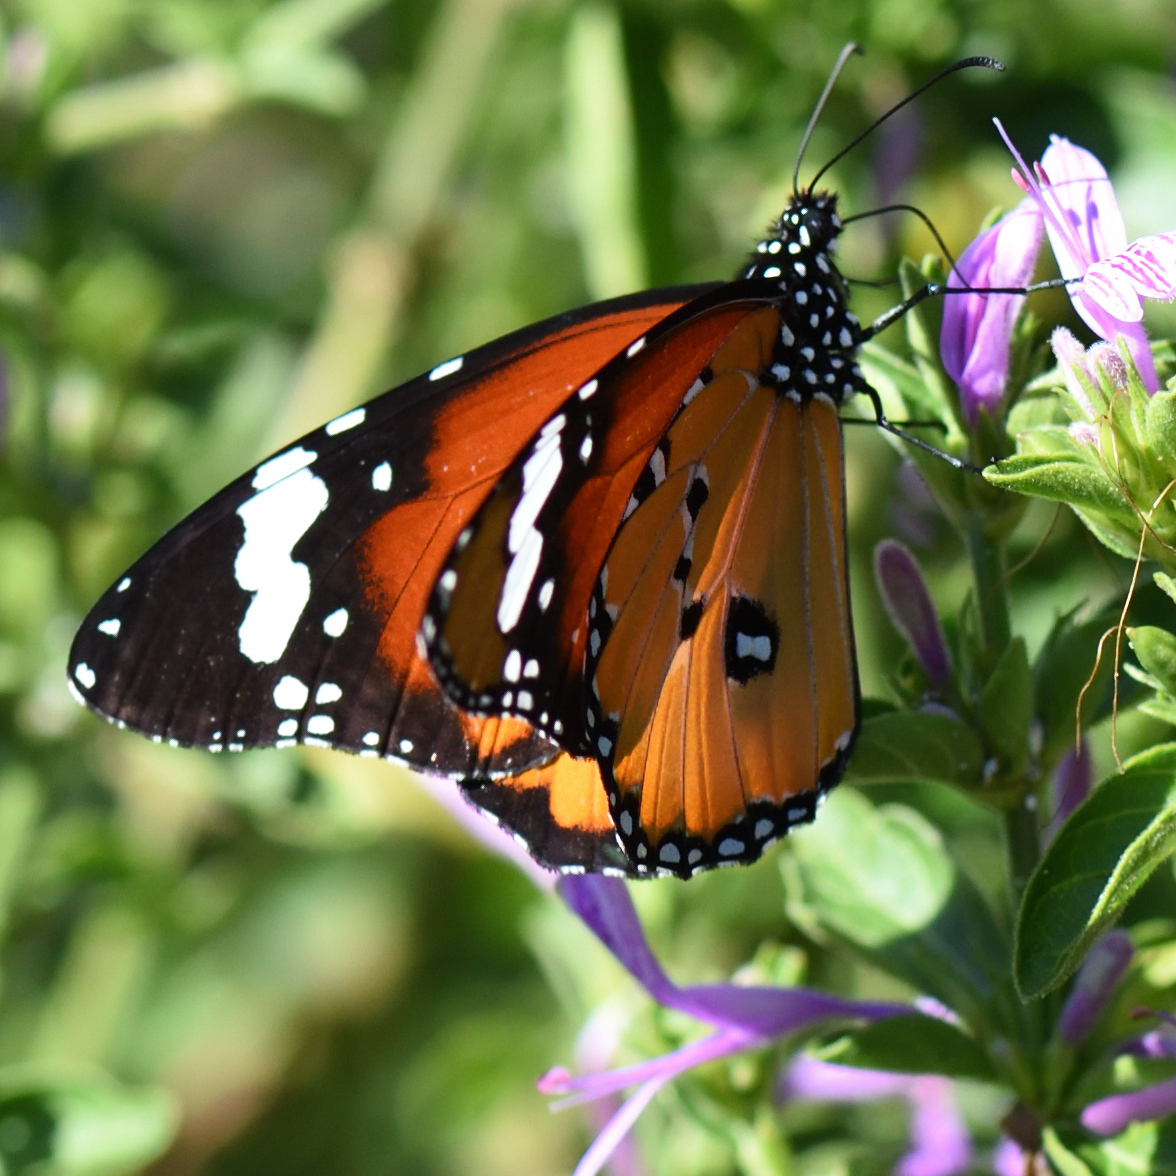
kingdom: Animalia
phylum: Arthropoda
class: Insecta
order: Lepidoptera
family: Nymphalidae
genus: Danaus
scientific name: Danaus chrysippus
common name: Plain tiger
